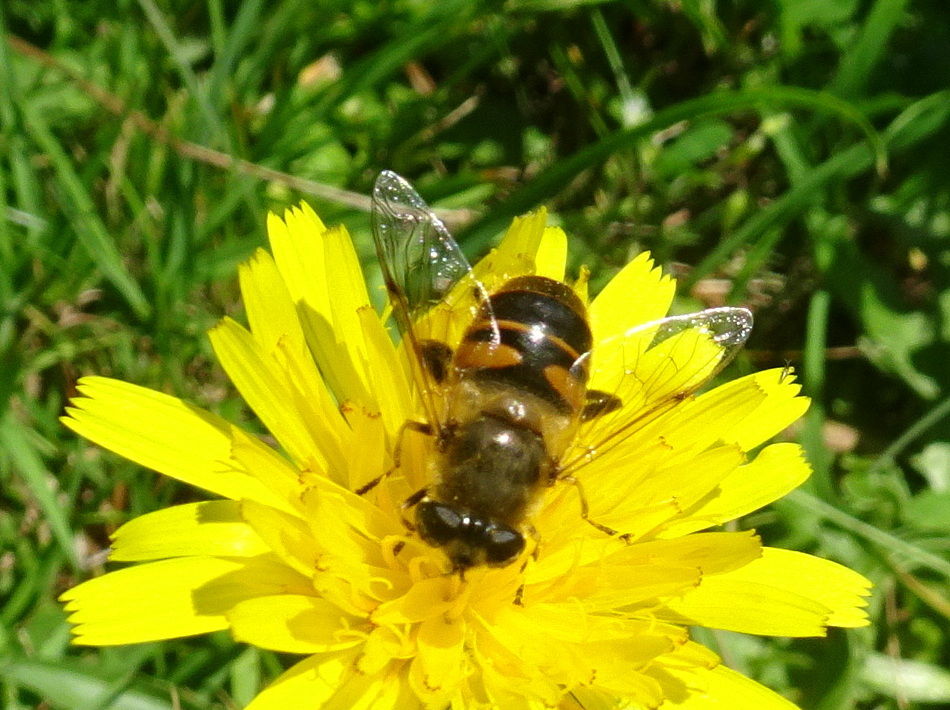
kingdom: Animalia
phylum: Arthropoda
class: Insecta
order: Diptera
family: Syrphidae
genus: Eristalis
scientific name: Eristalis tenax
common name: Drone fly
